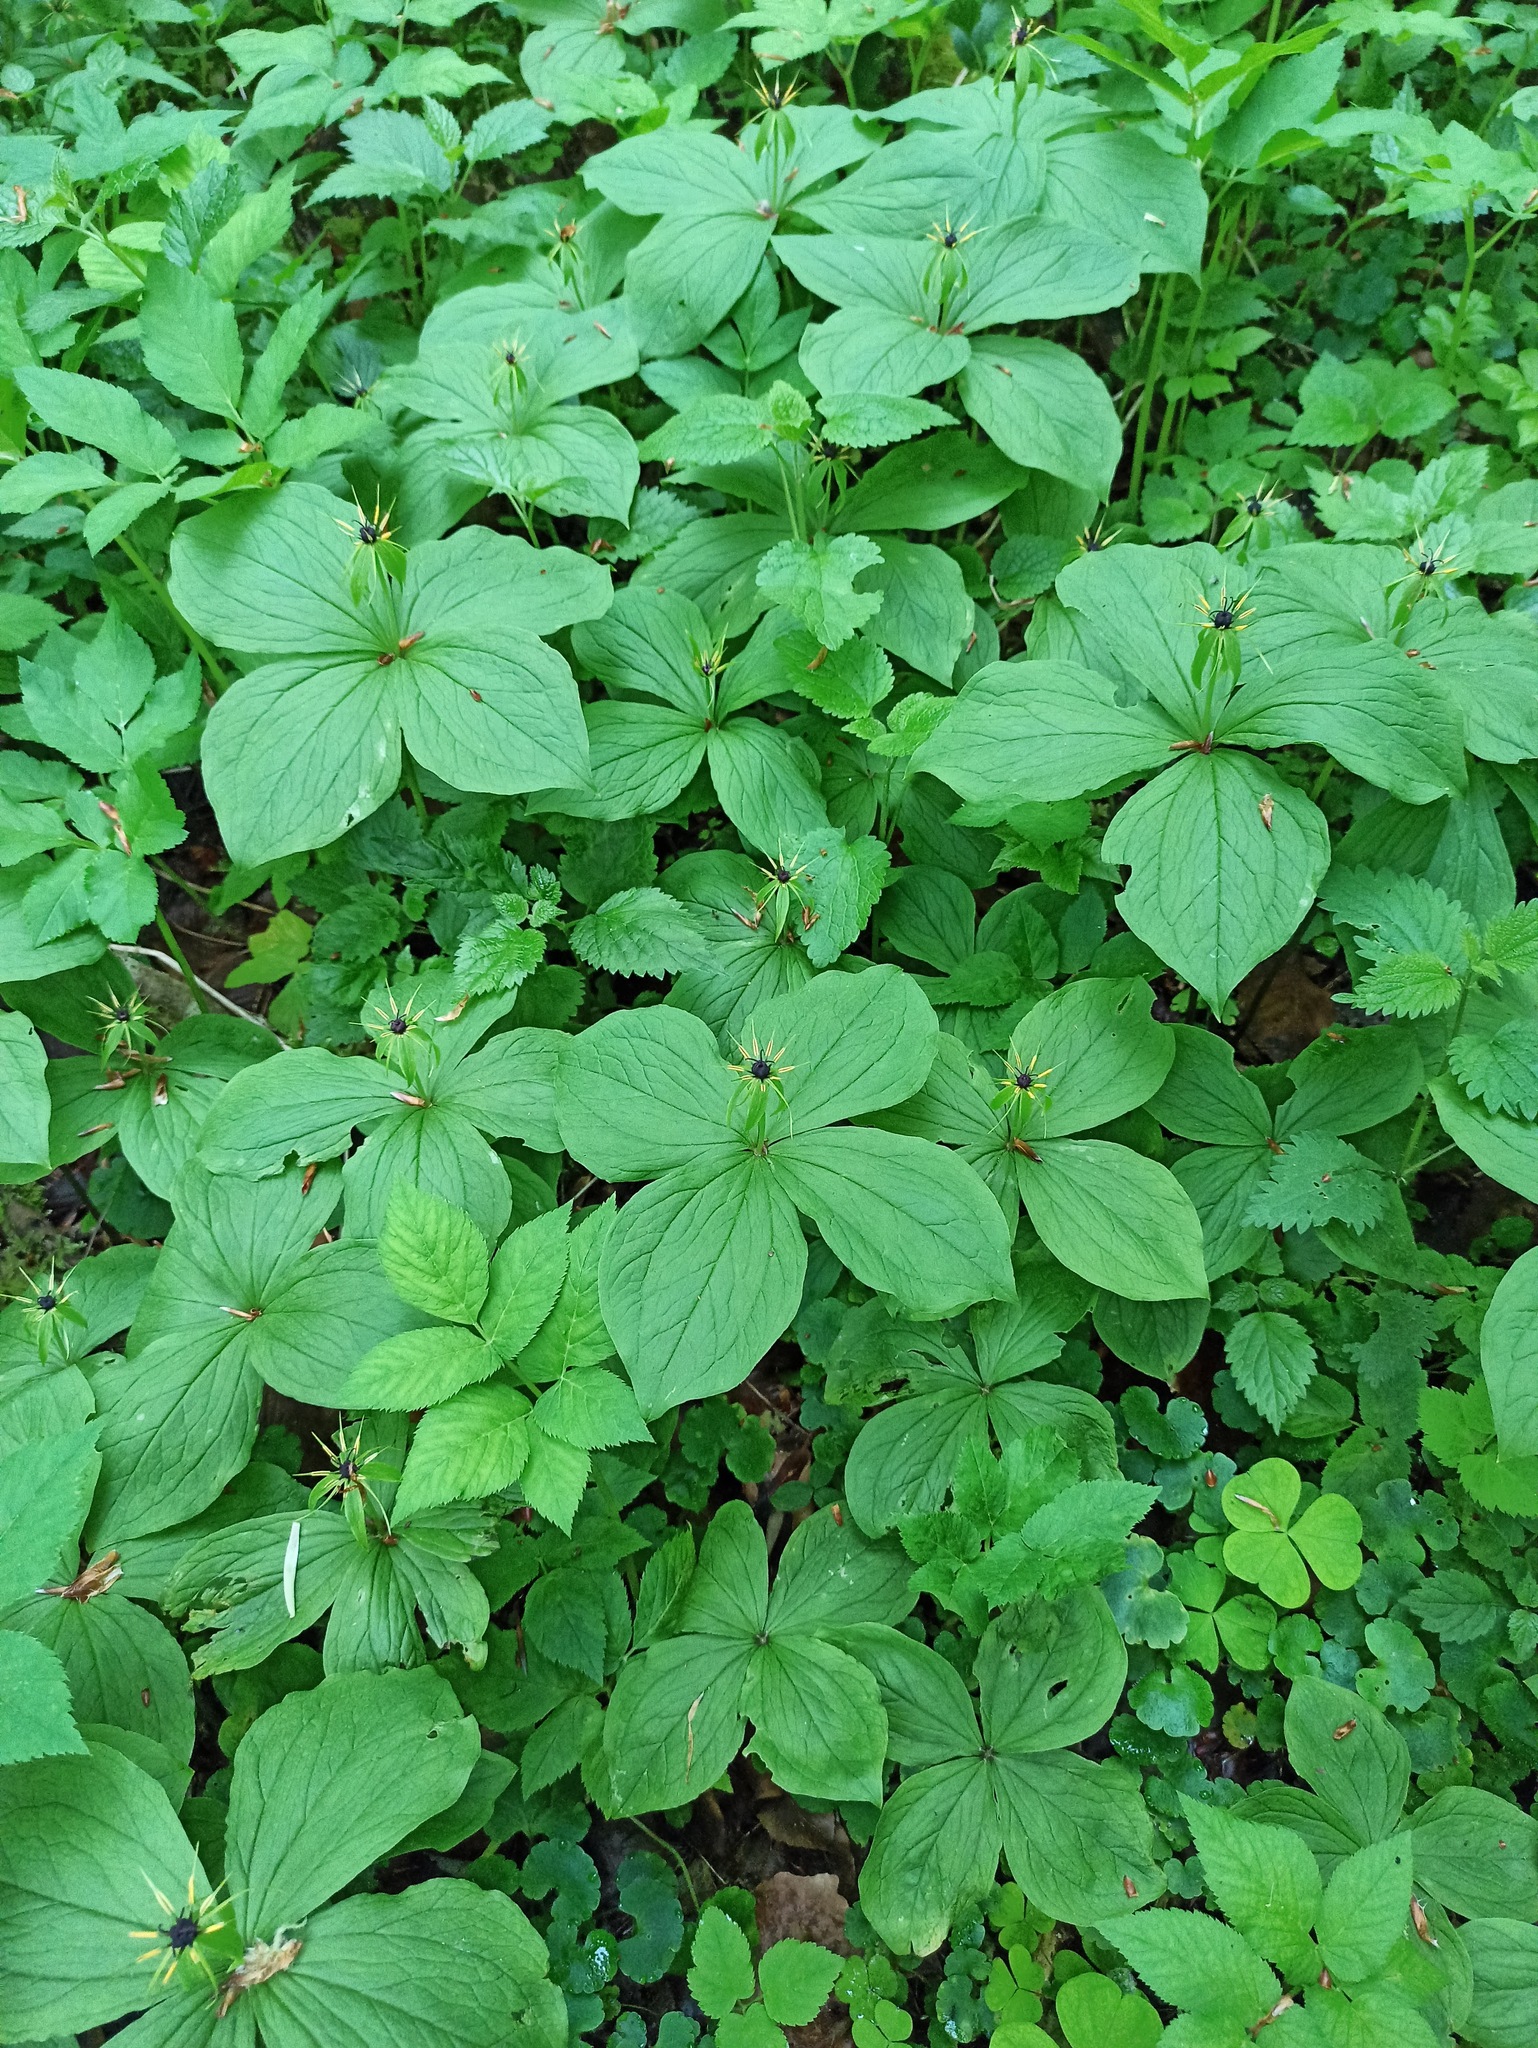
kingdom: Plantae
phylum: Tracheophyta
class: Liliopsida
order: Liliales
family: Melanthiaceae
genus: Paris
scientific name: Paris quadrifolia
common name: Herb-paris
